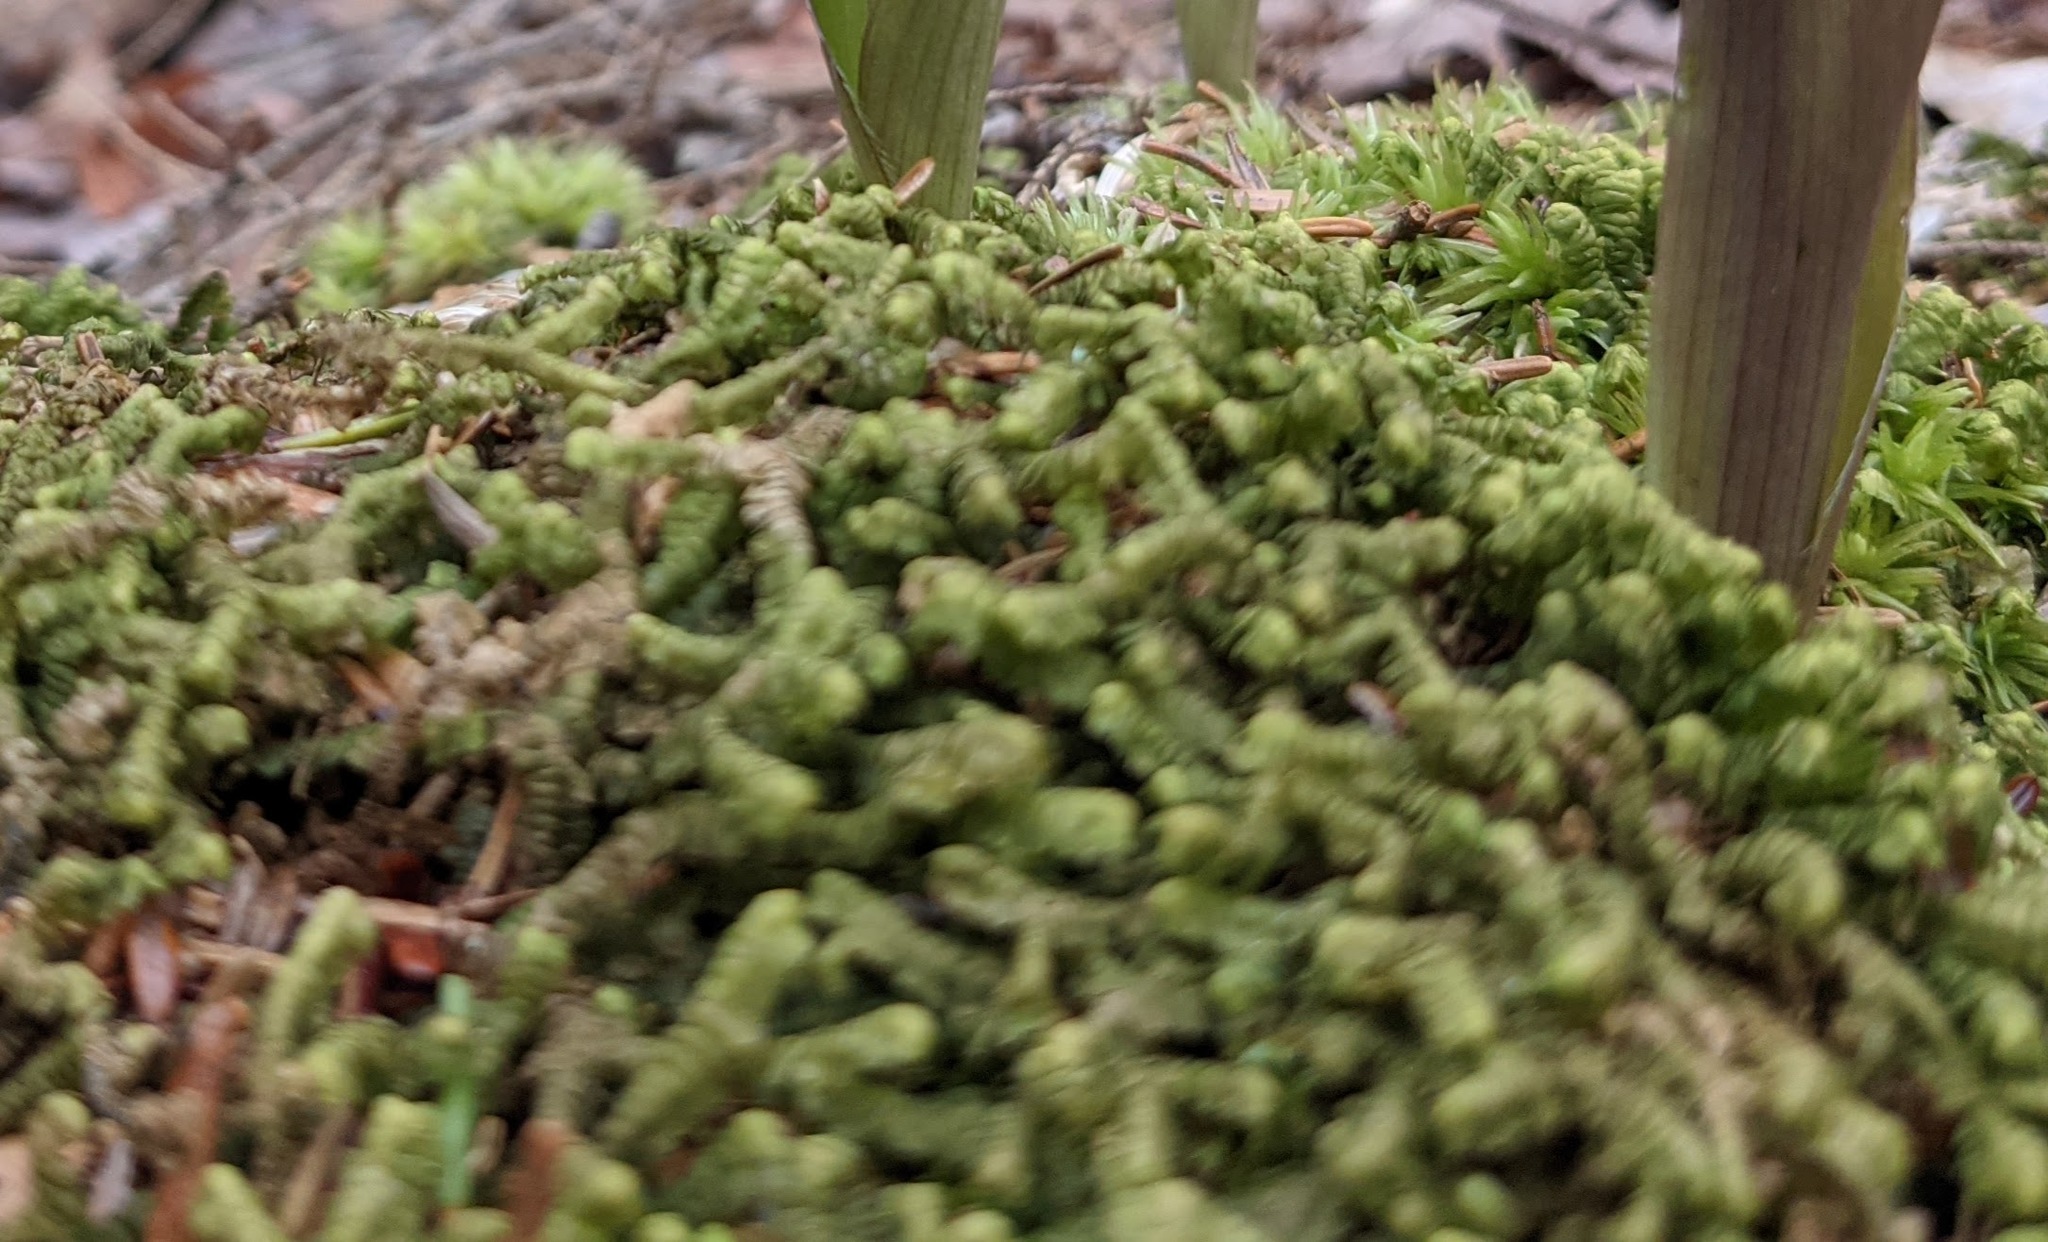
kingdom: Plantae
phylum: Marchantiophyta
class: Jungermanniopsida
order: Jungermanniales
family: Lepidoziaceae
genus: Bazzania
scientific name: Bazzania trilobata
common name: Three-lobed whipwort
